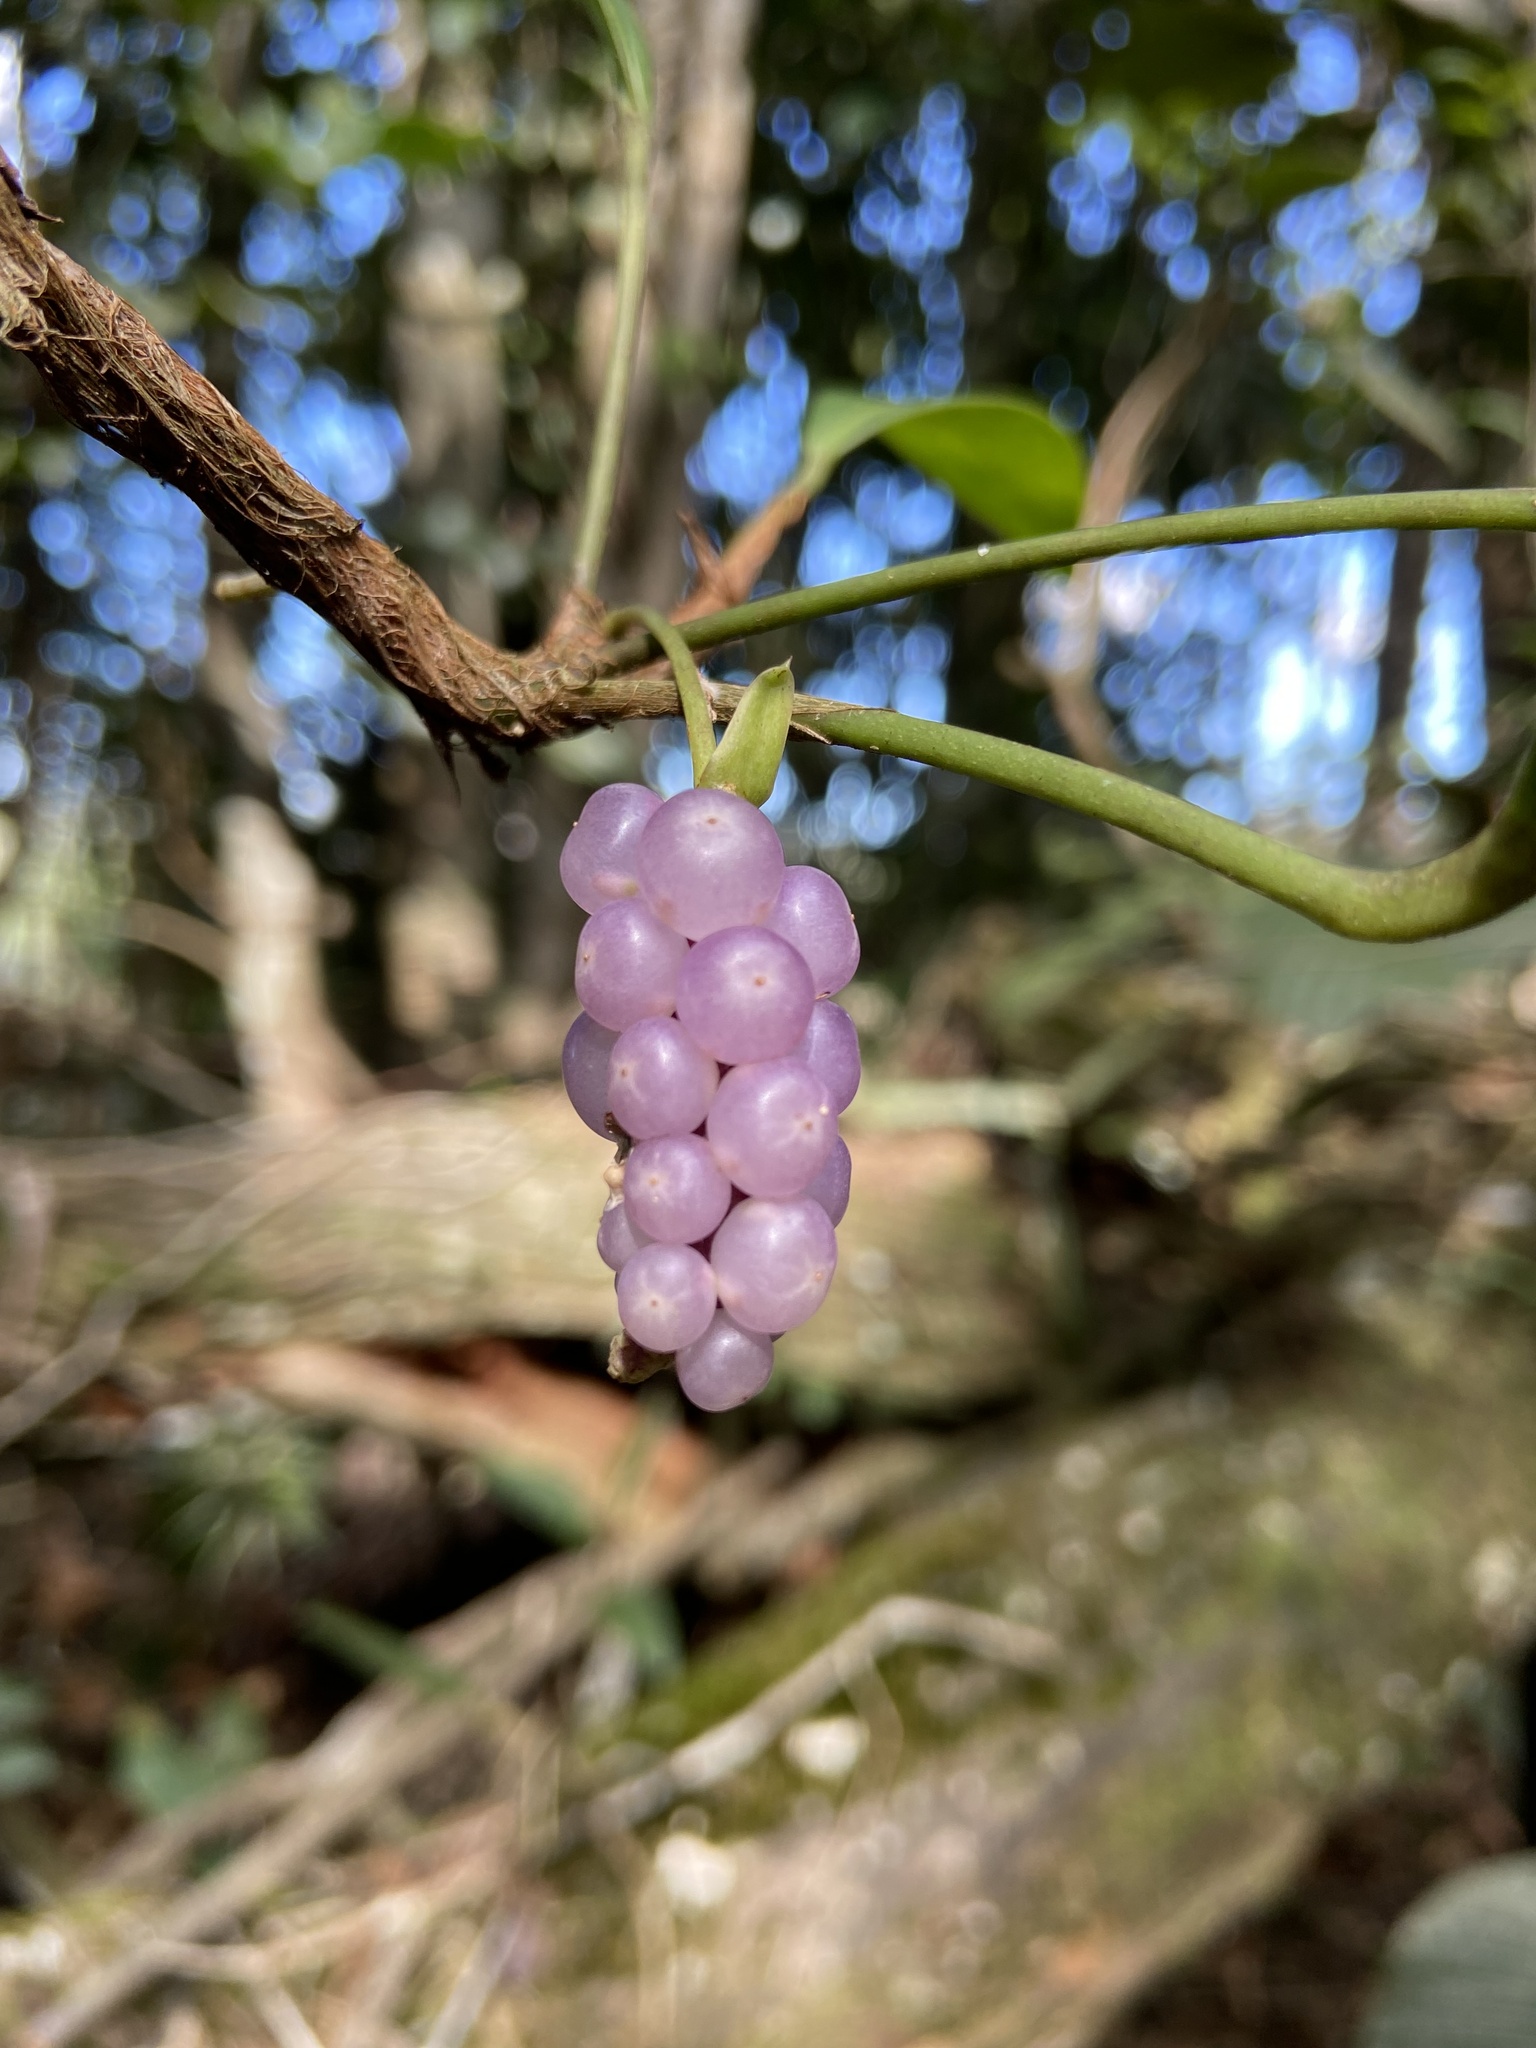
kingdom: Plantae
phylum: Tracheophyta
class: Liliopsida
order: Alismatales
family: Araceae
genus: Anthurium
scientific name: Anthurium scandens
